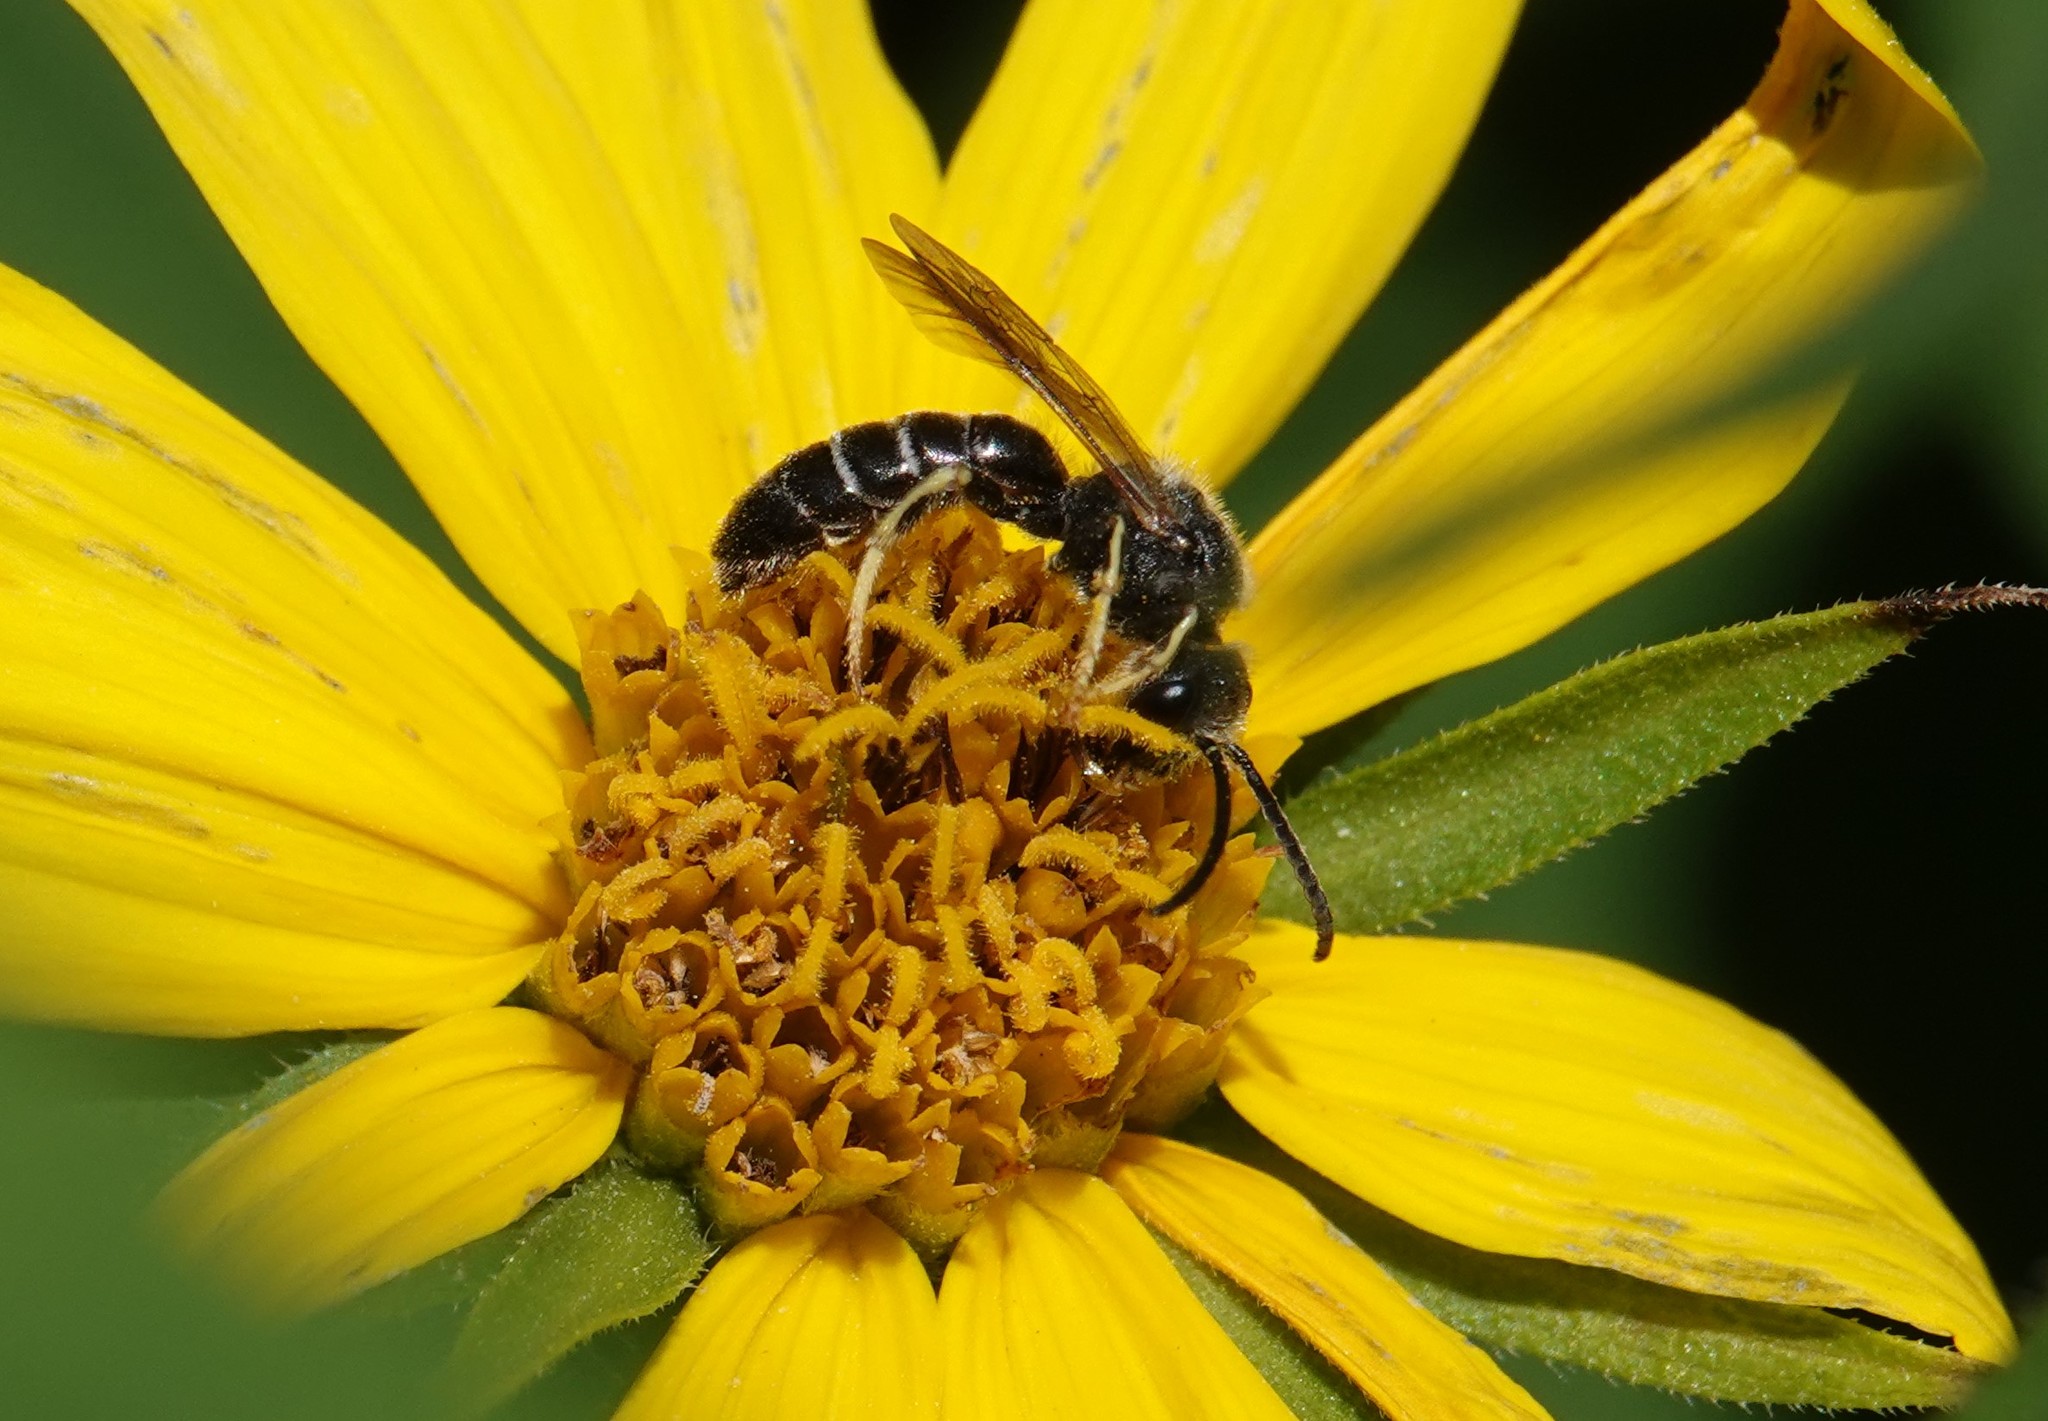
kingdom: Animalia
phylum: Arthropoda
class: Insecta
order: Hymenoptera
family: Halictidae
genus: Halictus
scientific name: Halictus rubicundus
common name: Orange-legged furrow bee
